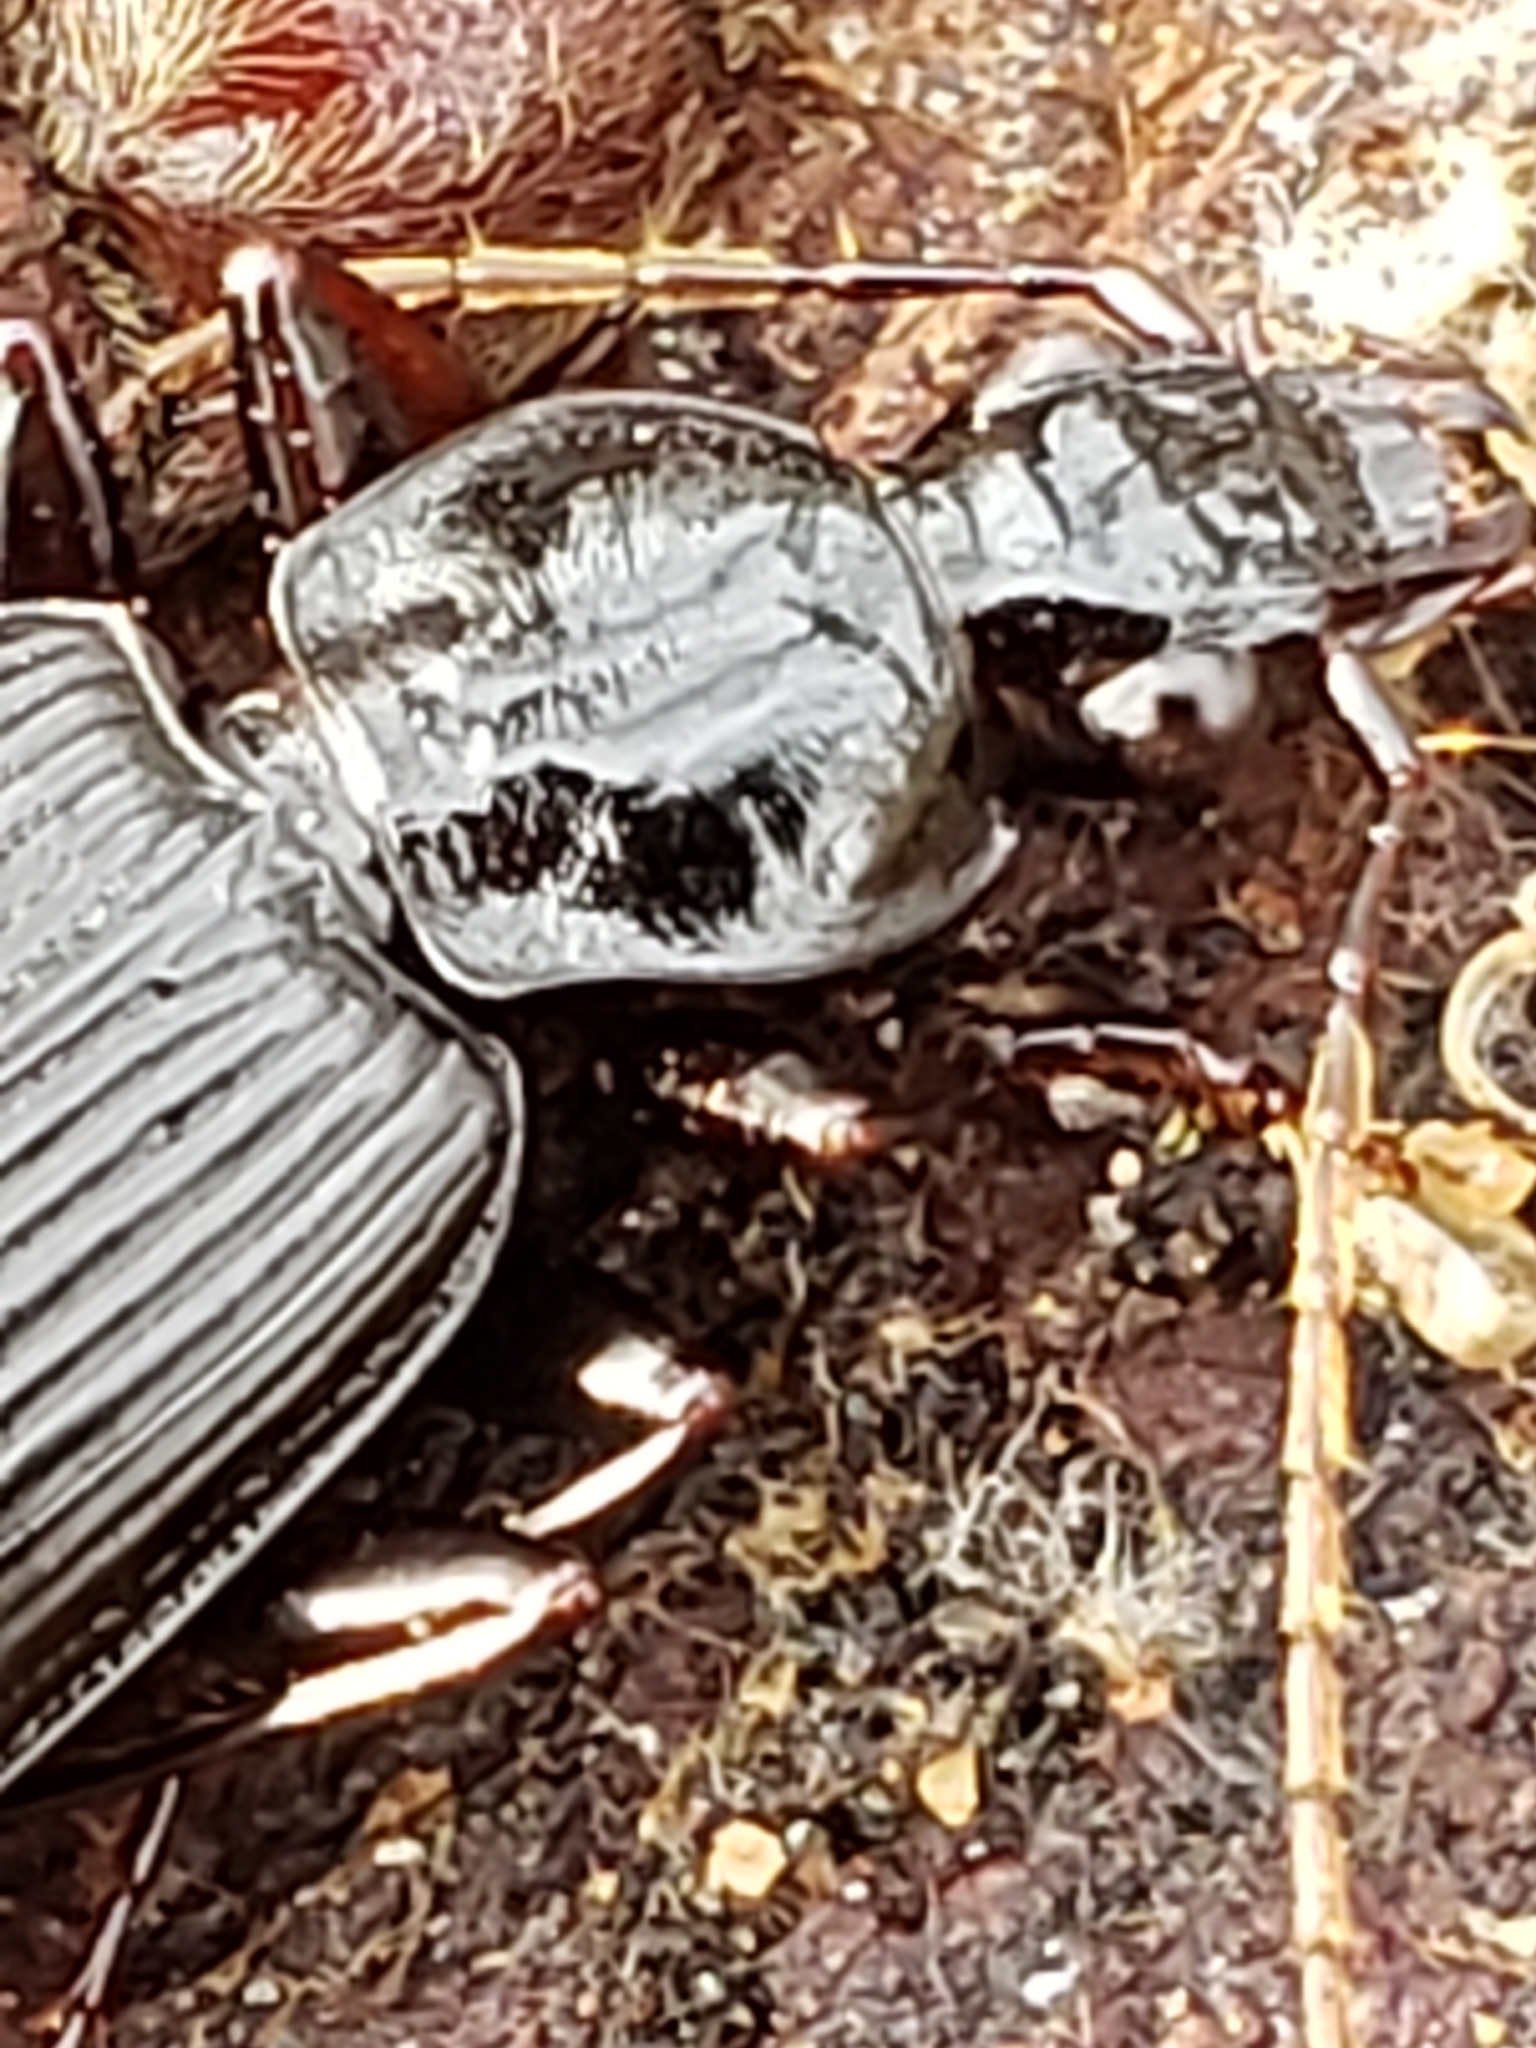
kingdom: Animalia
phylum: Arthropoda
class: Insecta
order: Coleoptera
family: Carabidae
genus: Platynus
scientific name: Platynus decentis
